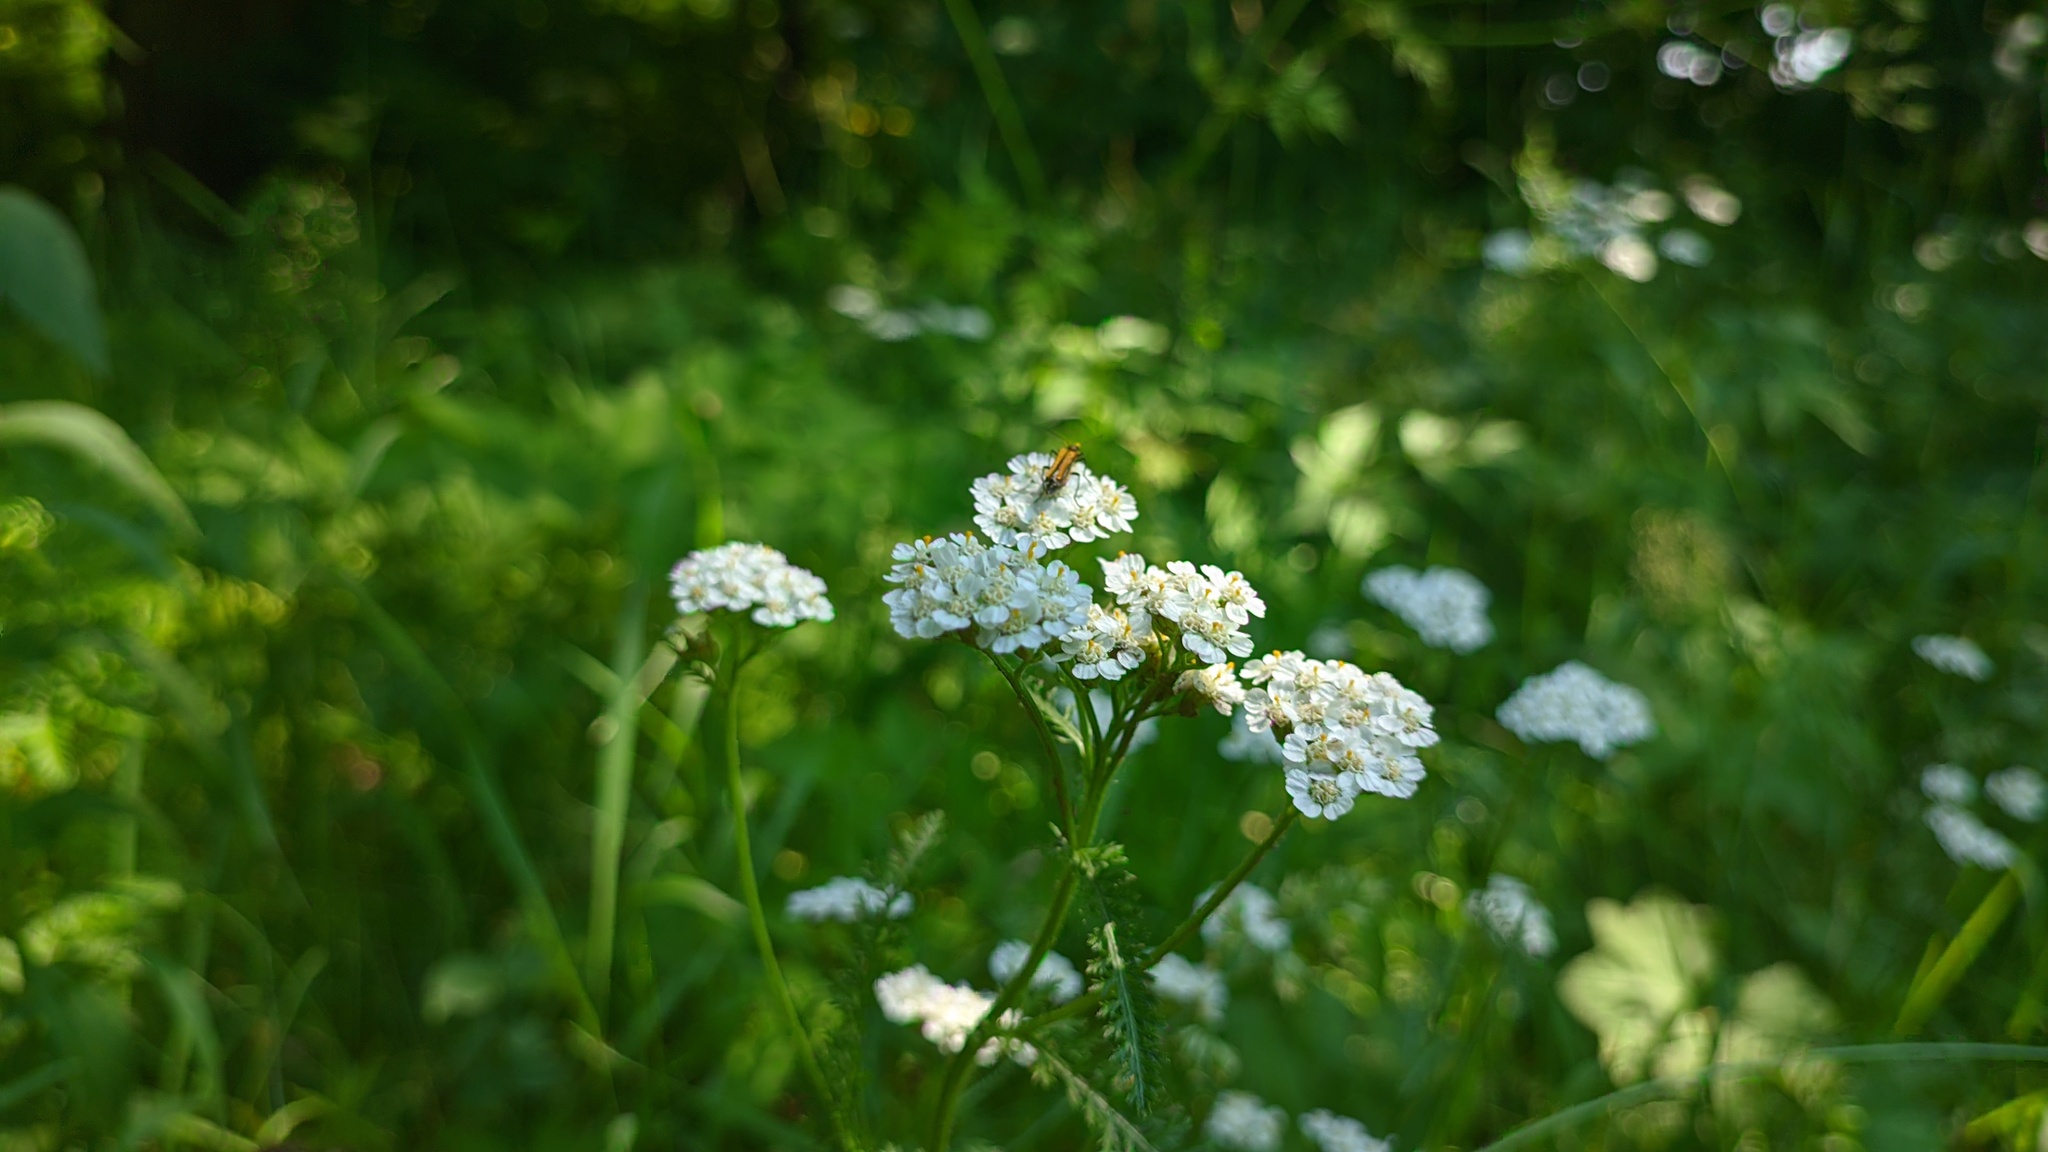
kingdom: Plantae
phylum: Tracheophyta
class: Magnoliopsida
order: Asterales
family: Asteraceae
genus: Achillea
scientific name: Achillea millefolium
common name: Yarrow
